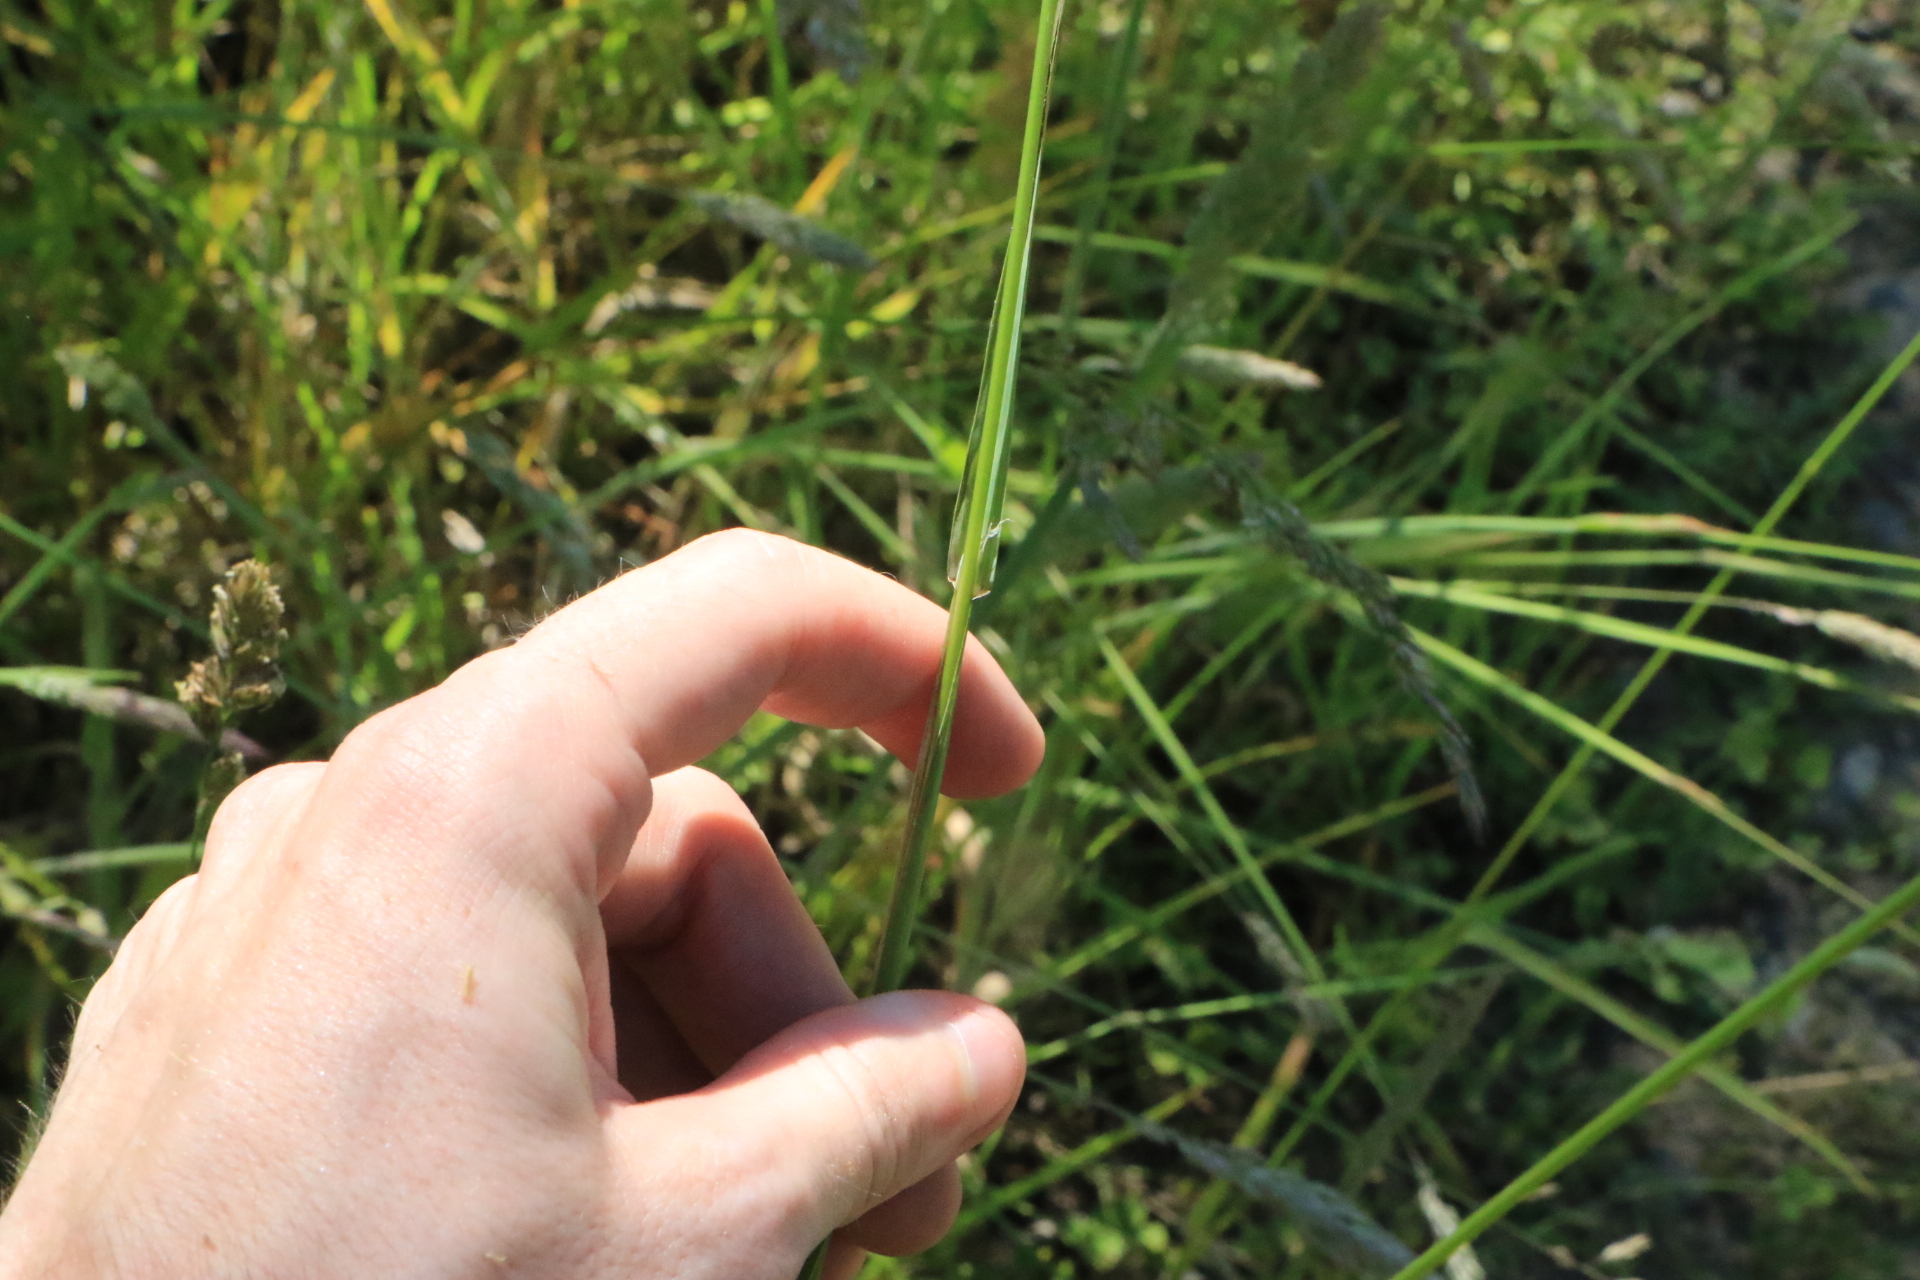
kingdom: Plantae
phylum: Tracheophyta
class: Liliopsida
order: Poales
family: Poaceae
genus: Dactylis
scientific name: Dactylis glomerata
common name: Orchardgrass
